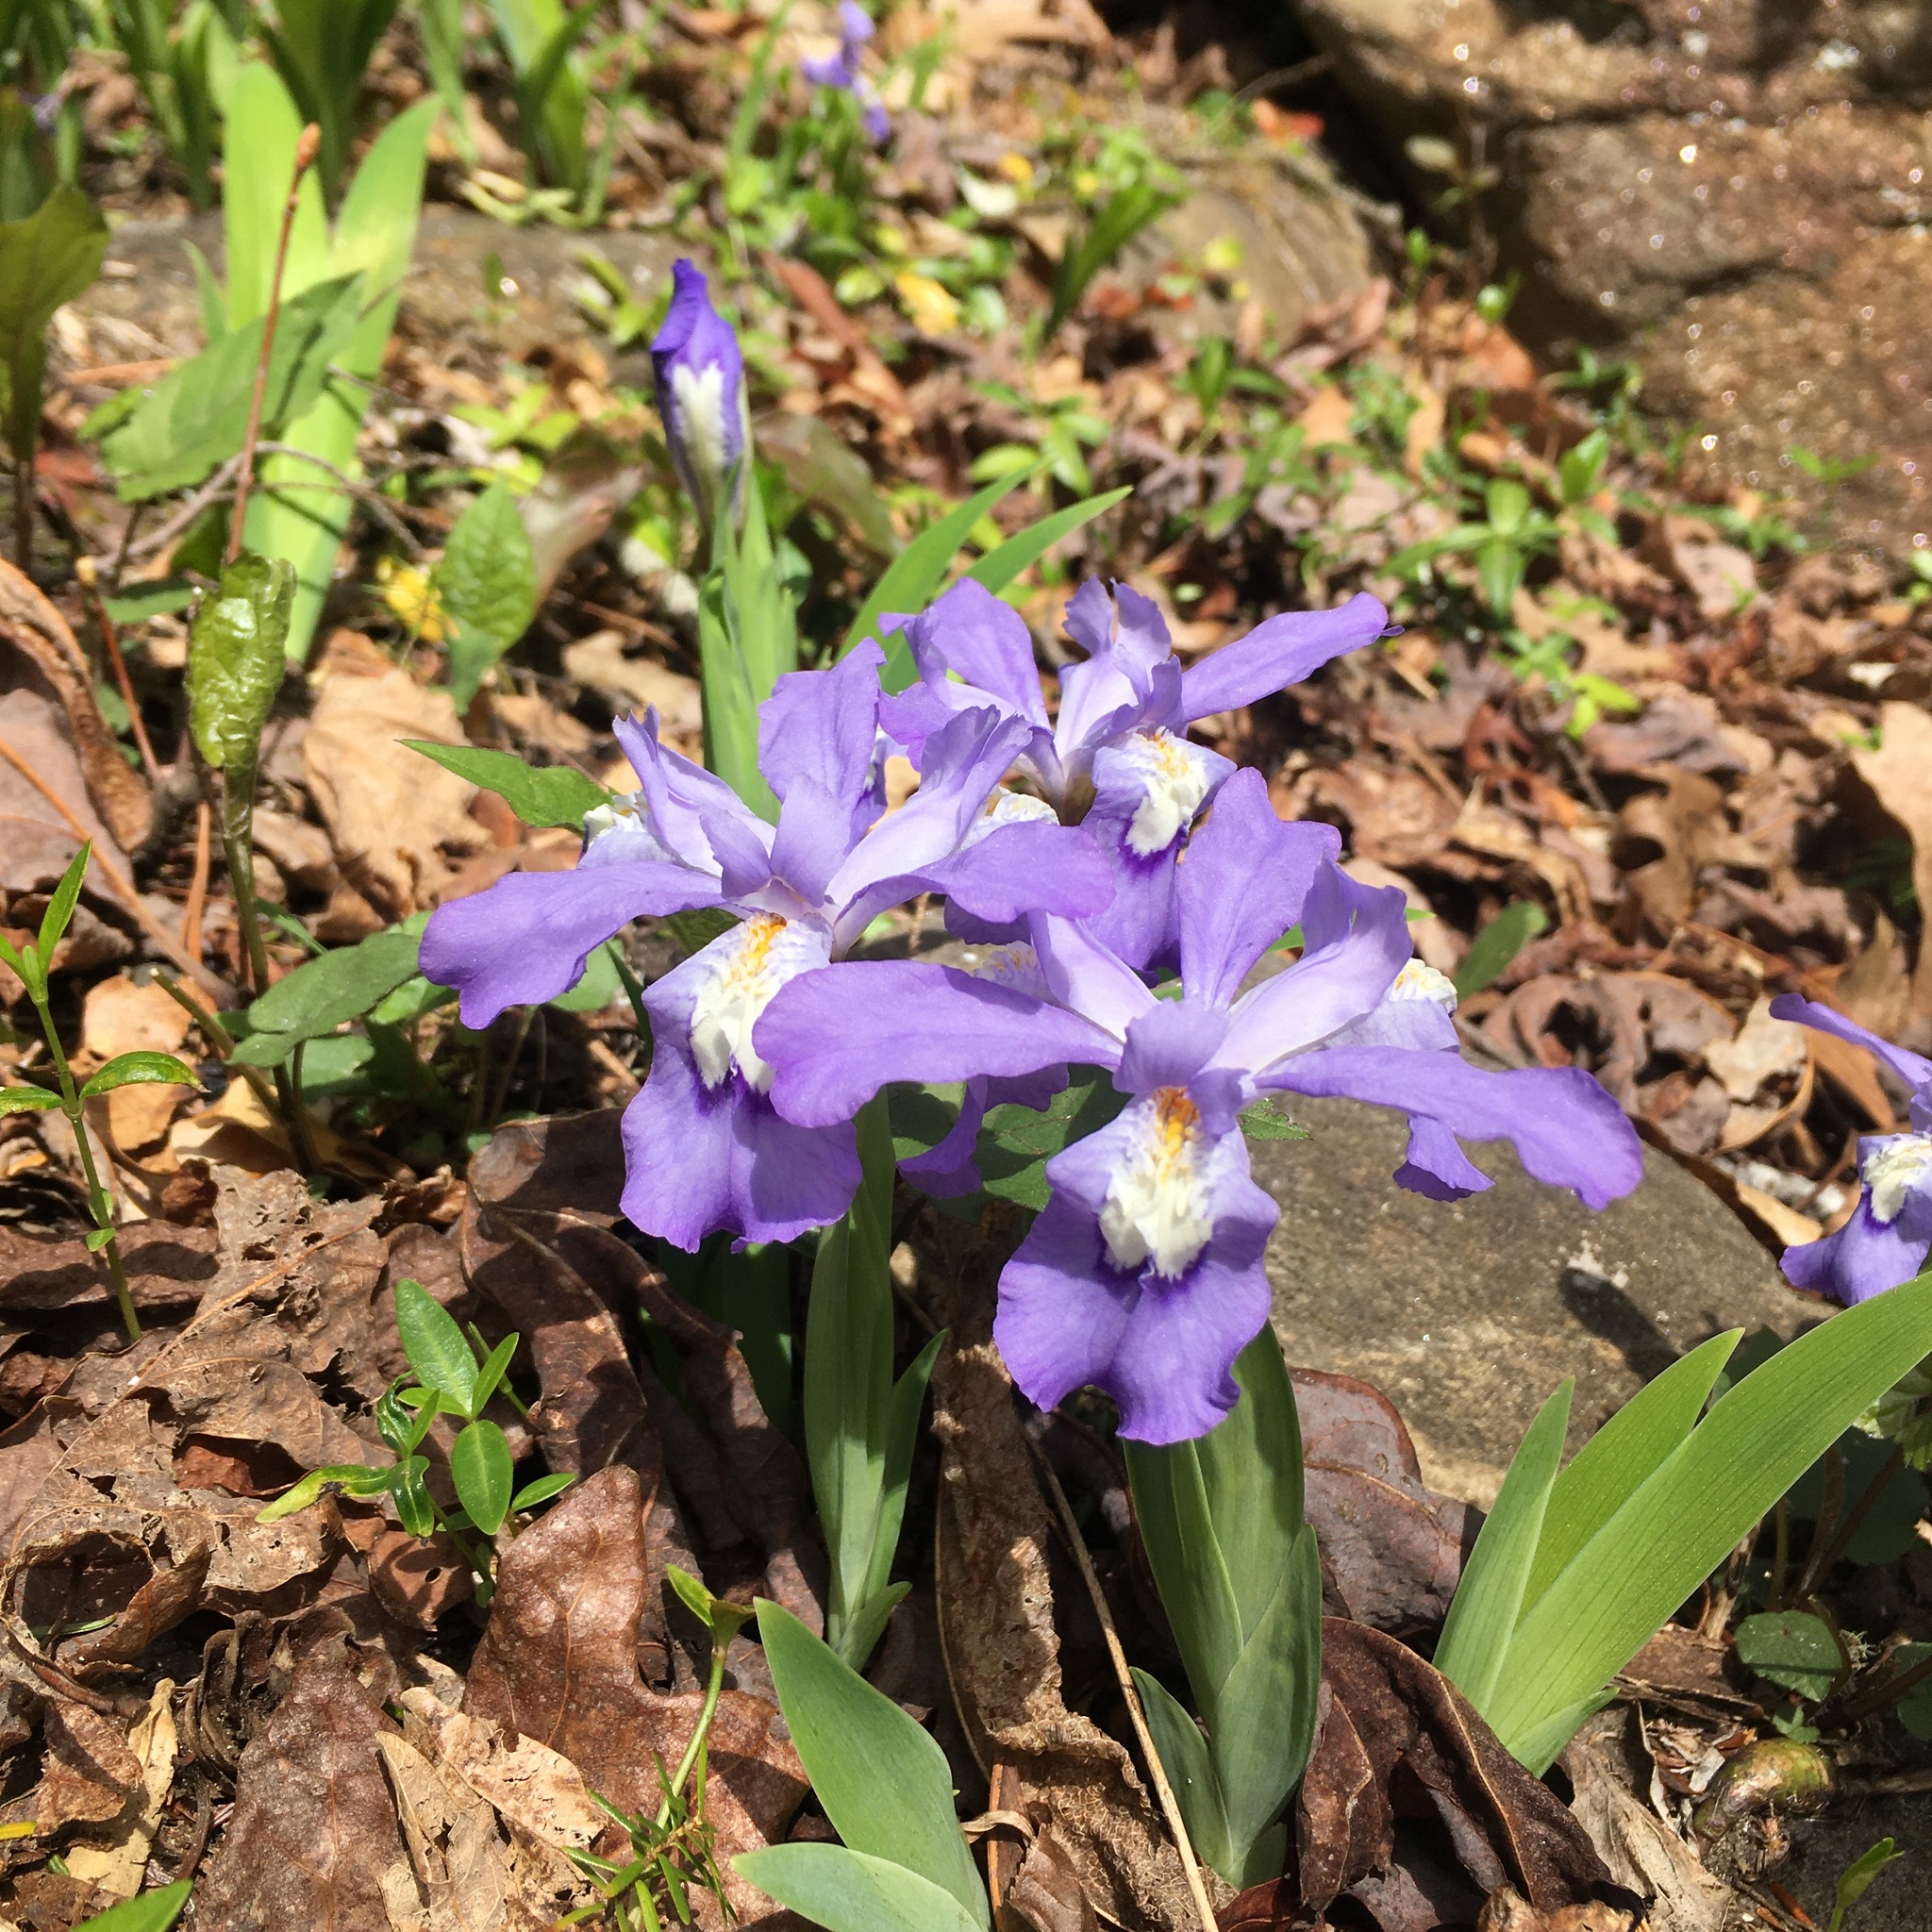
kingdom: Plantae
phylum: Tracheophyta
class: Liliopsida
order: Asparagales
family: Iridaceae
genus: Iris
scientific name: Iris cristata
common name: Crested iris
